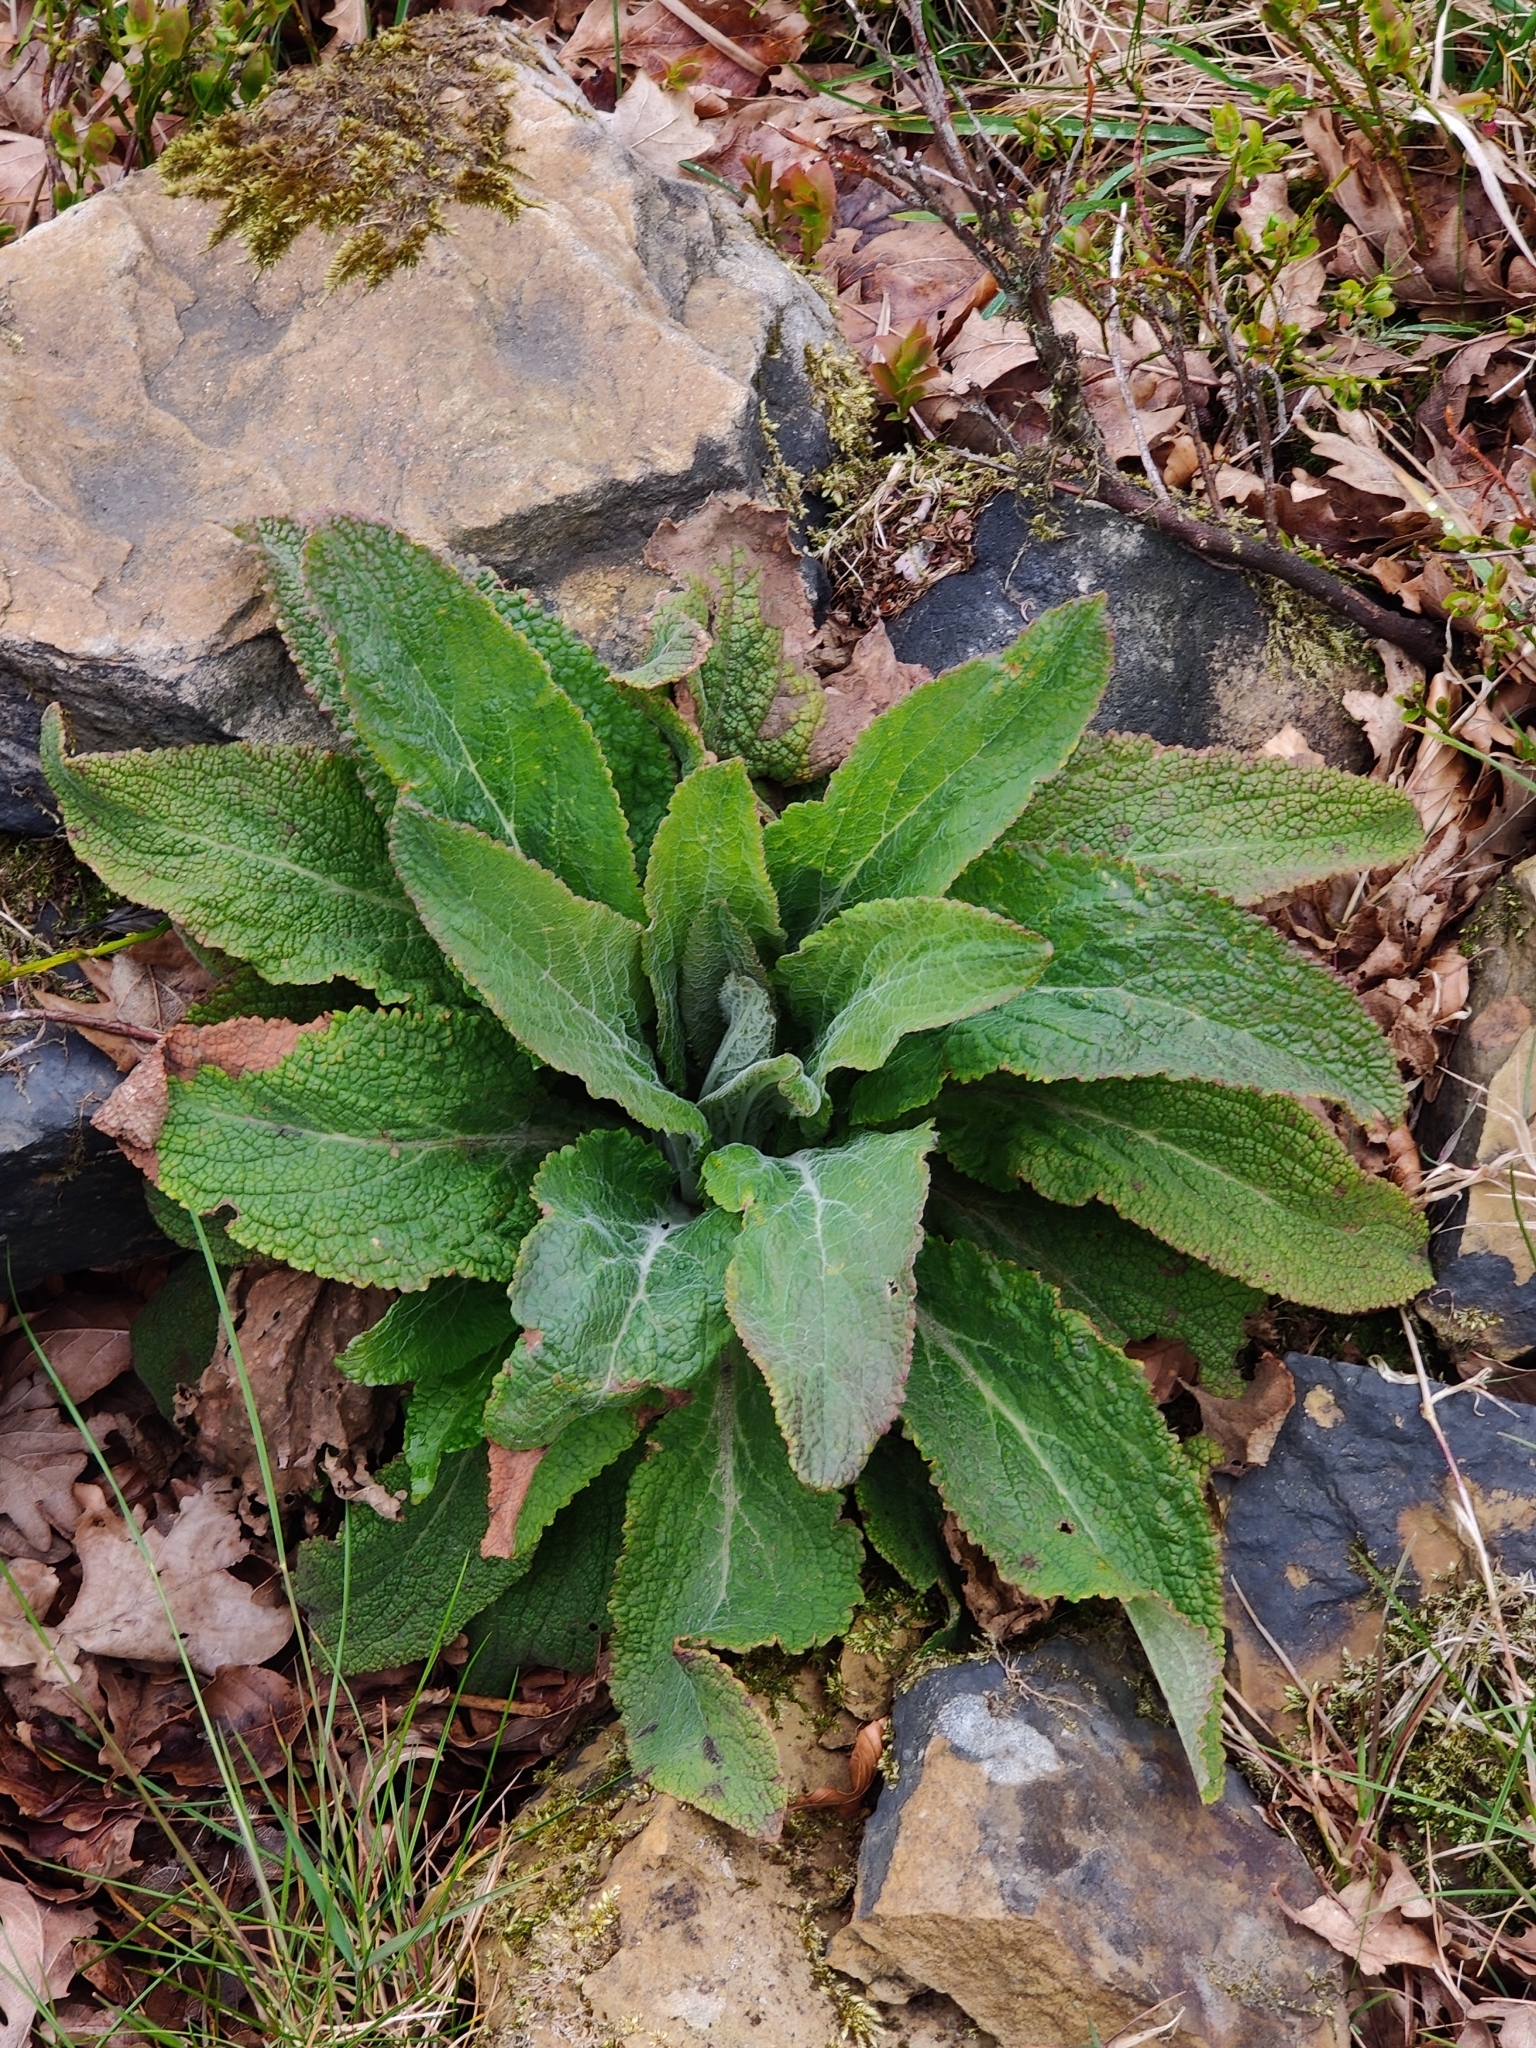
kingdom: Plantae
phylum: Tracheophyta
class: Magnoliopsida
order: Lamiales
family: Plantaginaceae
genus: Digitalis
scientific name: Digitalis purpurea
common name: Foxglove
